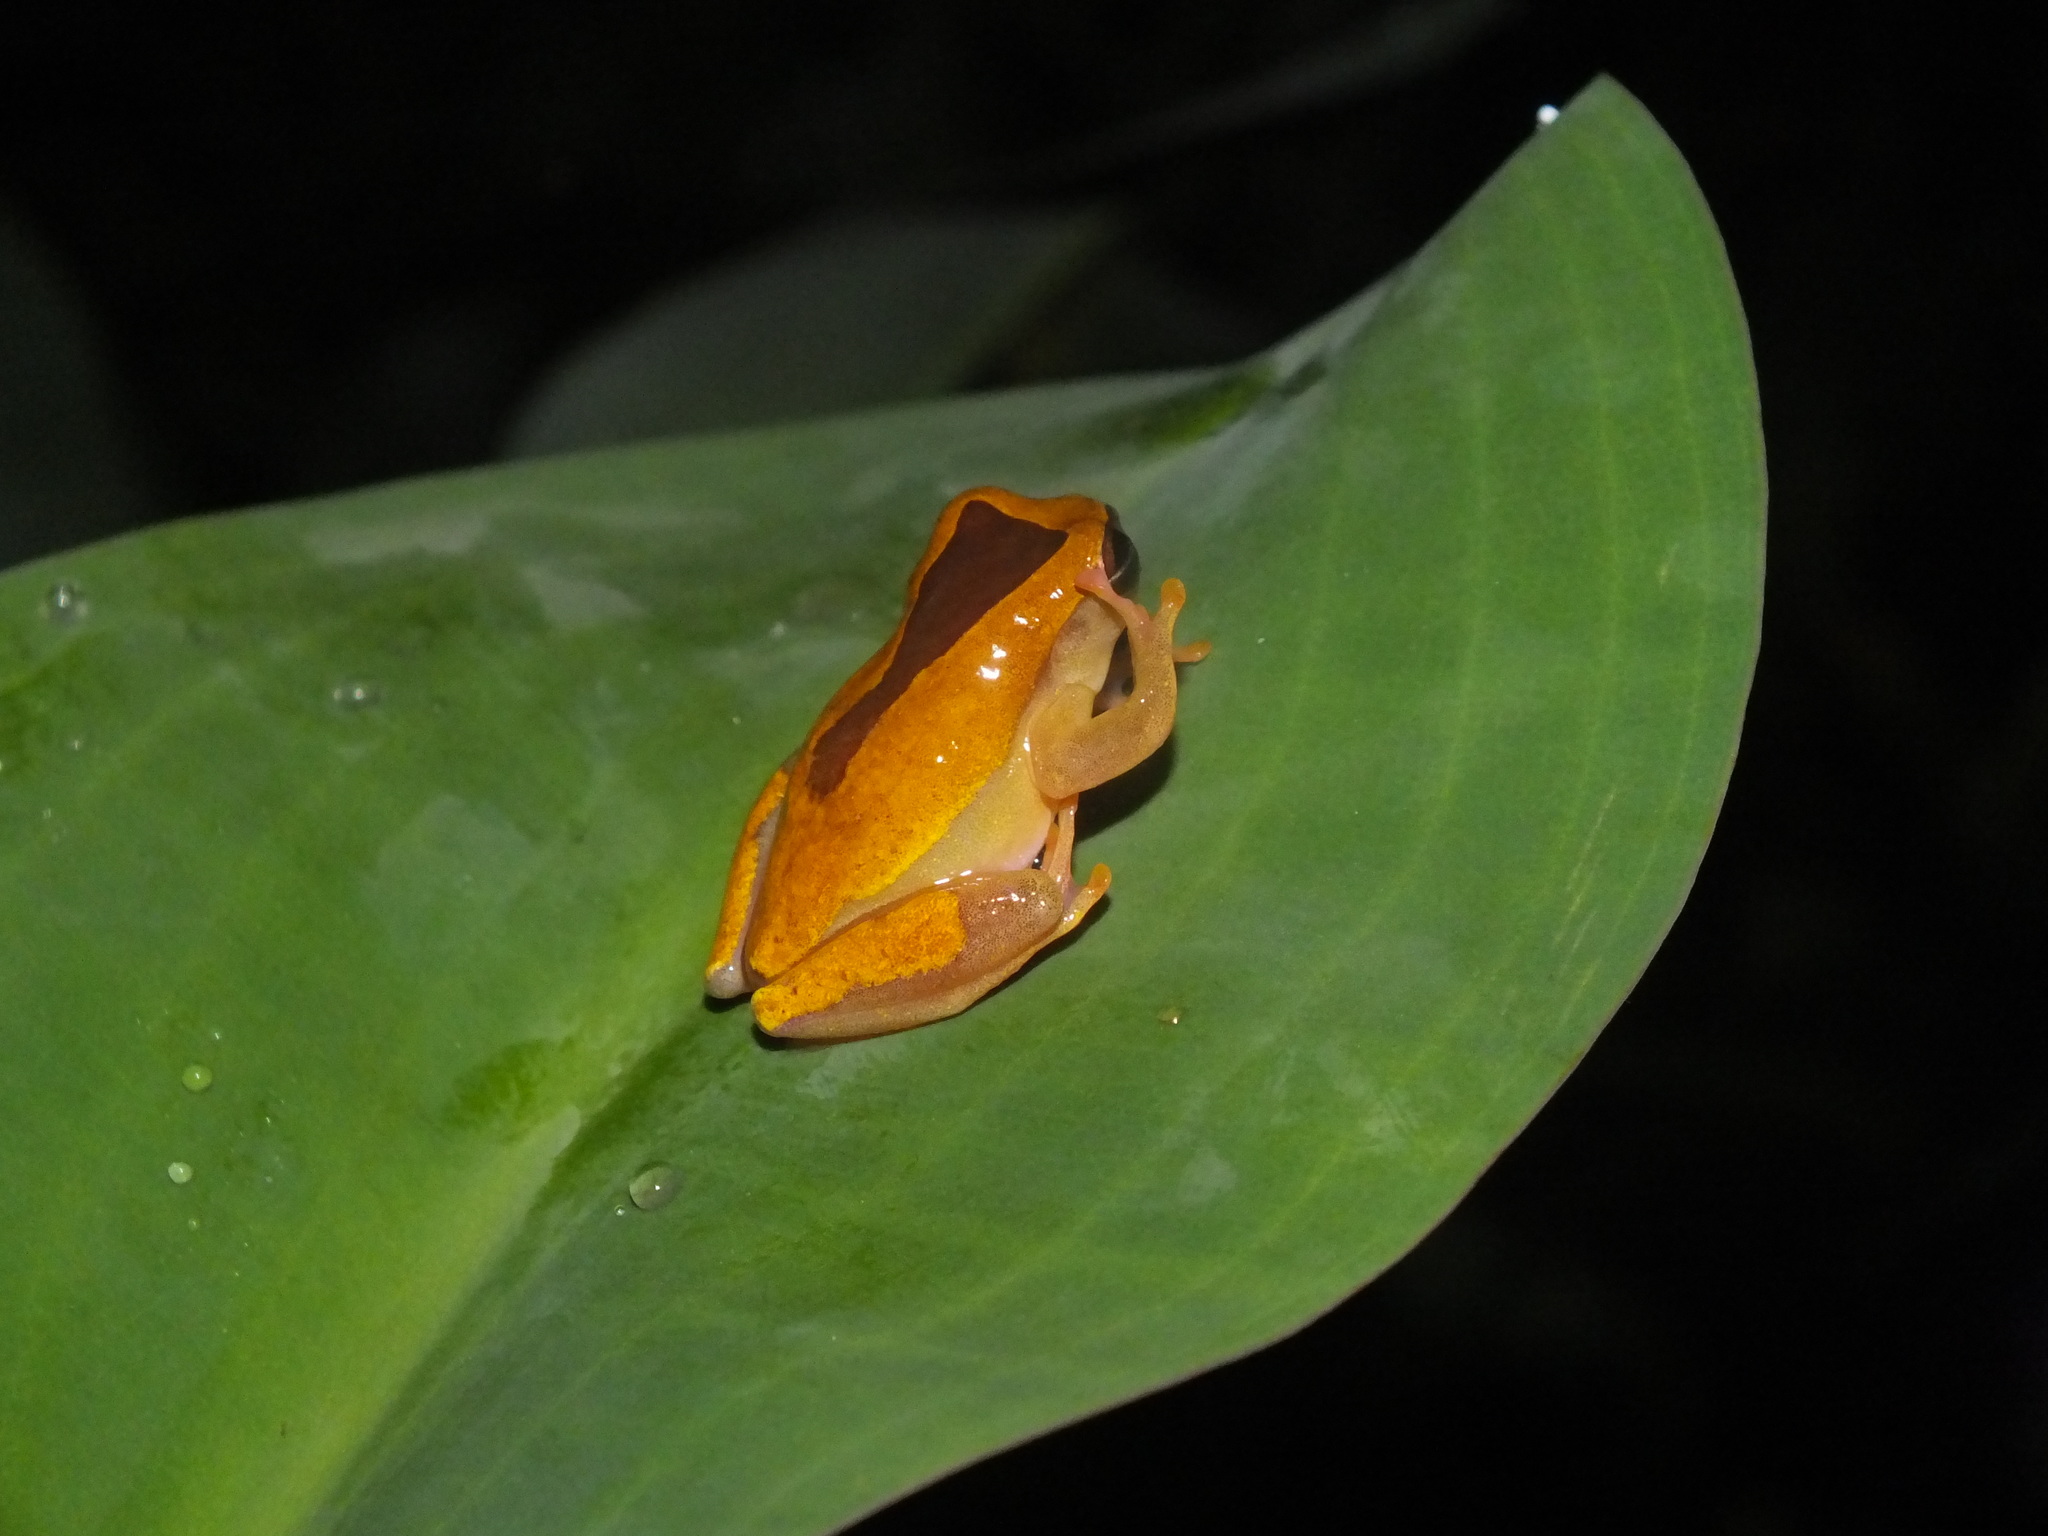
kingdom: Animalia
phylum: Chordata
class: Amphibia
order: Anura
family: Hylidae
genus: Dendropsophus
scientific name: Dendropsophus triangulum
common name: Triangle treefrog
